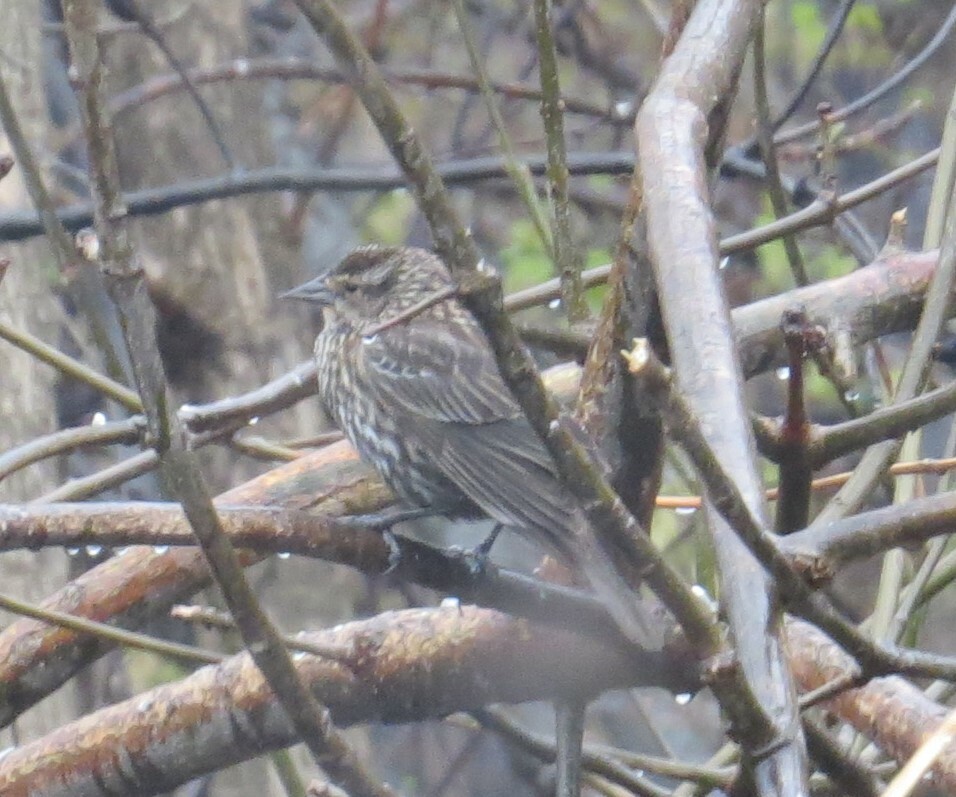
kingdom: Animalia
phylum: Chordata
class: Aves
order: Passeriformes
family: Icteridae
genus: Agelaius
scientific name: Agelaius phoeniceus
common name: Red-winged blackbird
